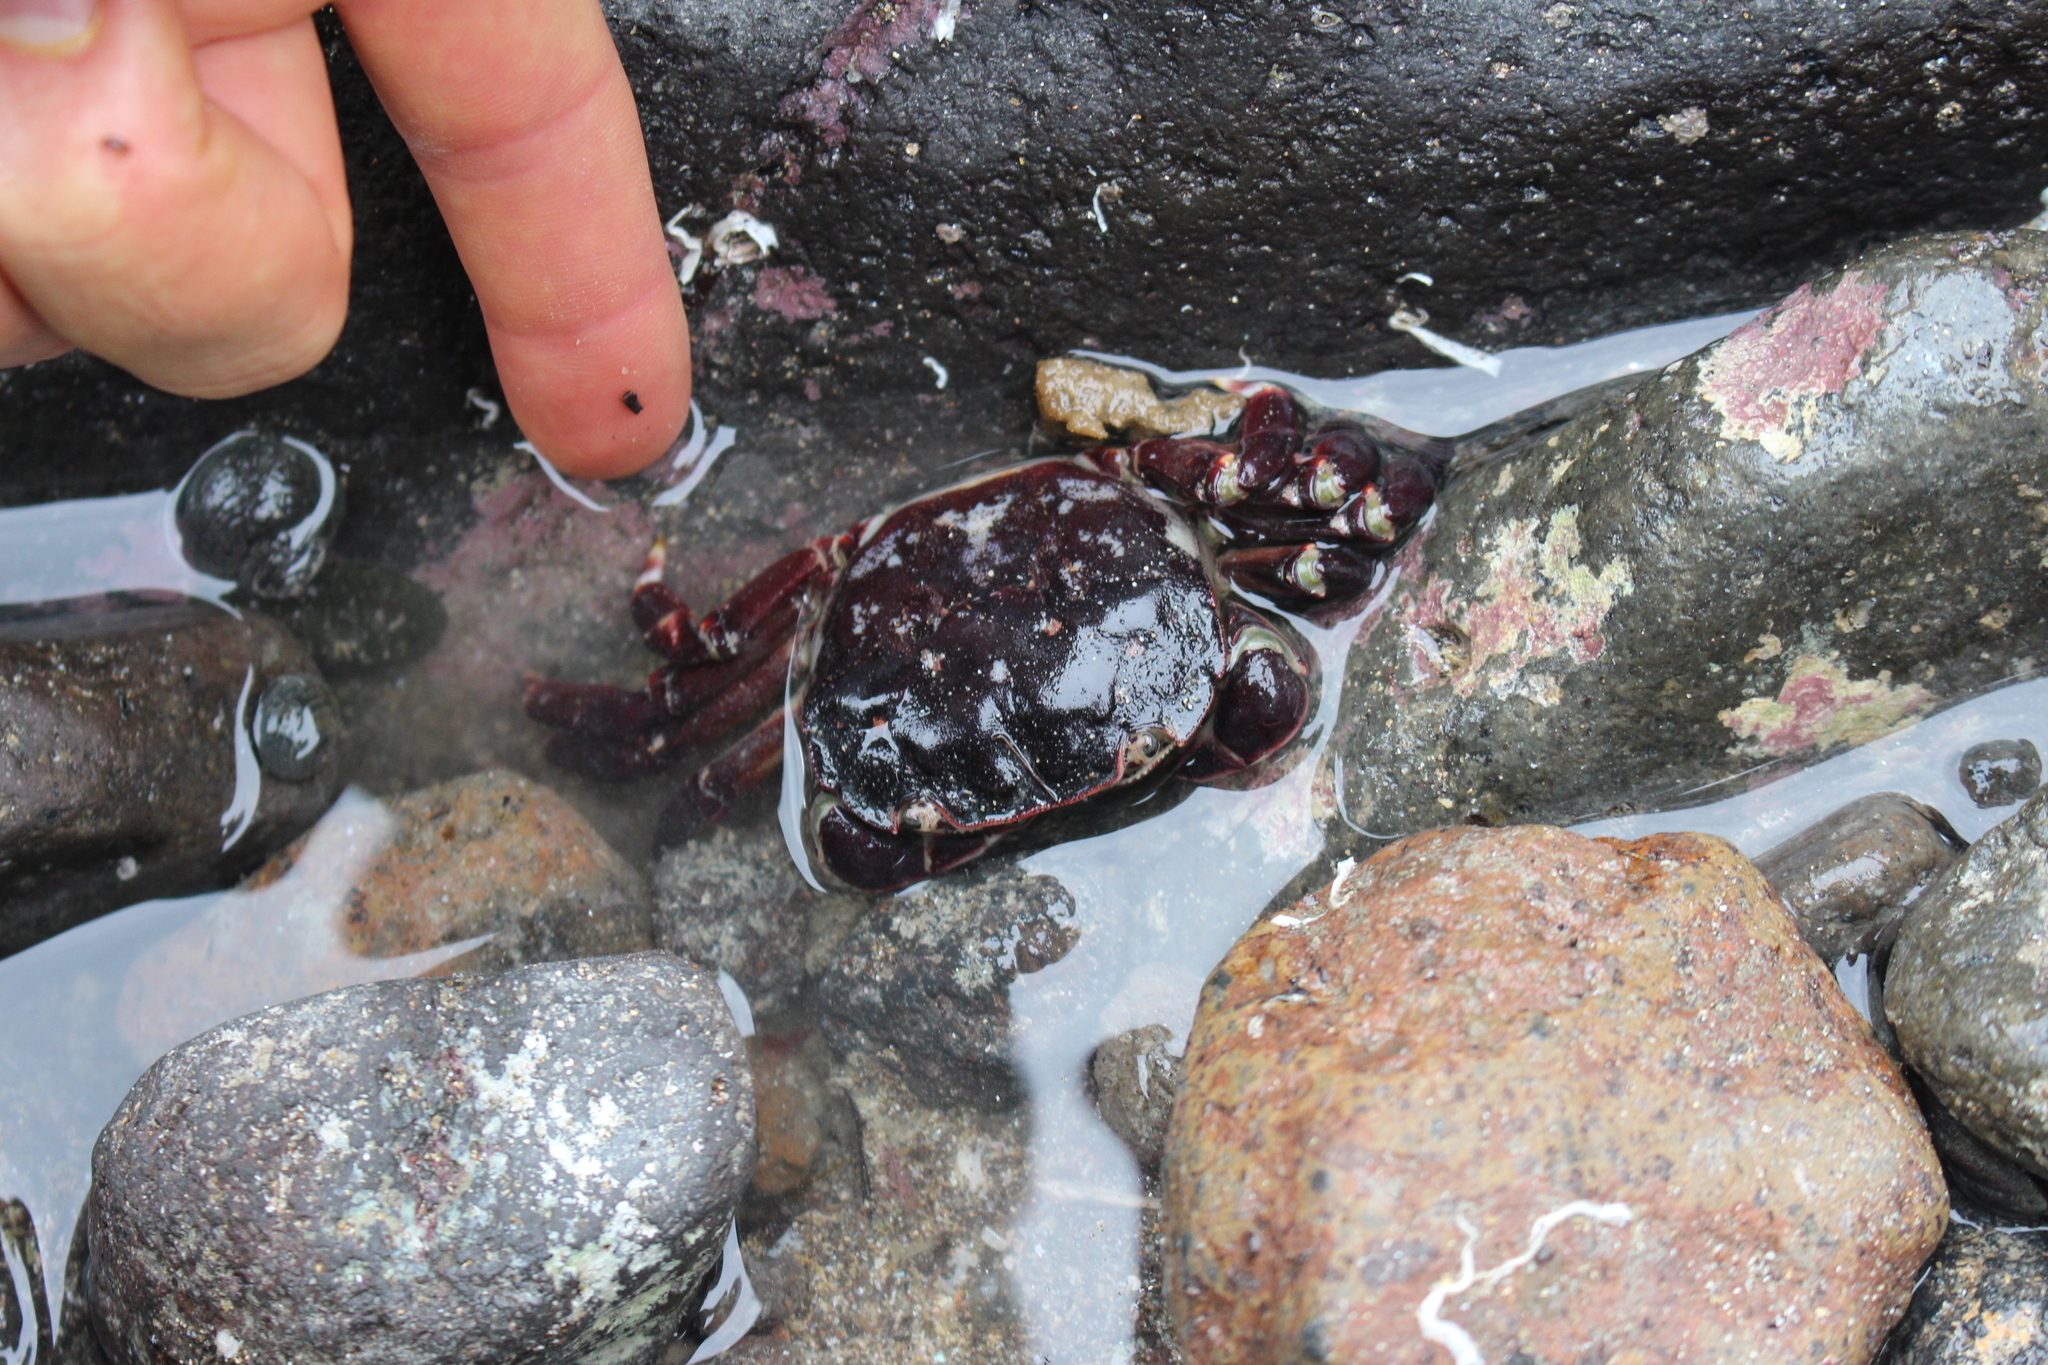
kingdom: Animalia
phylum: Arthropoda
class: Malacostraca
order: Decapoda
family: Varunidae
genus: Hemigrapsus
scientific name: Hemigrapsus sexdentatus
